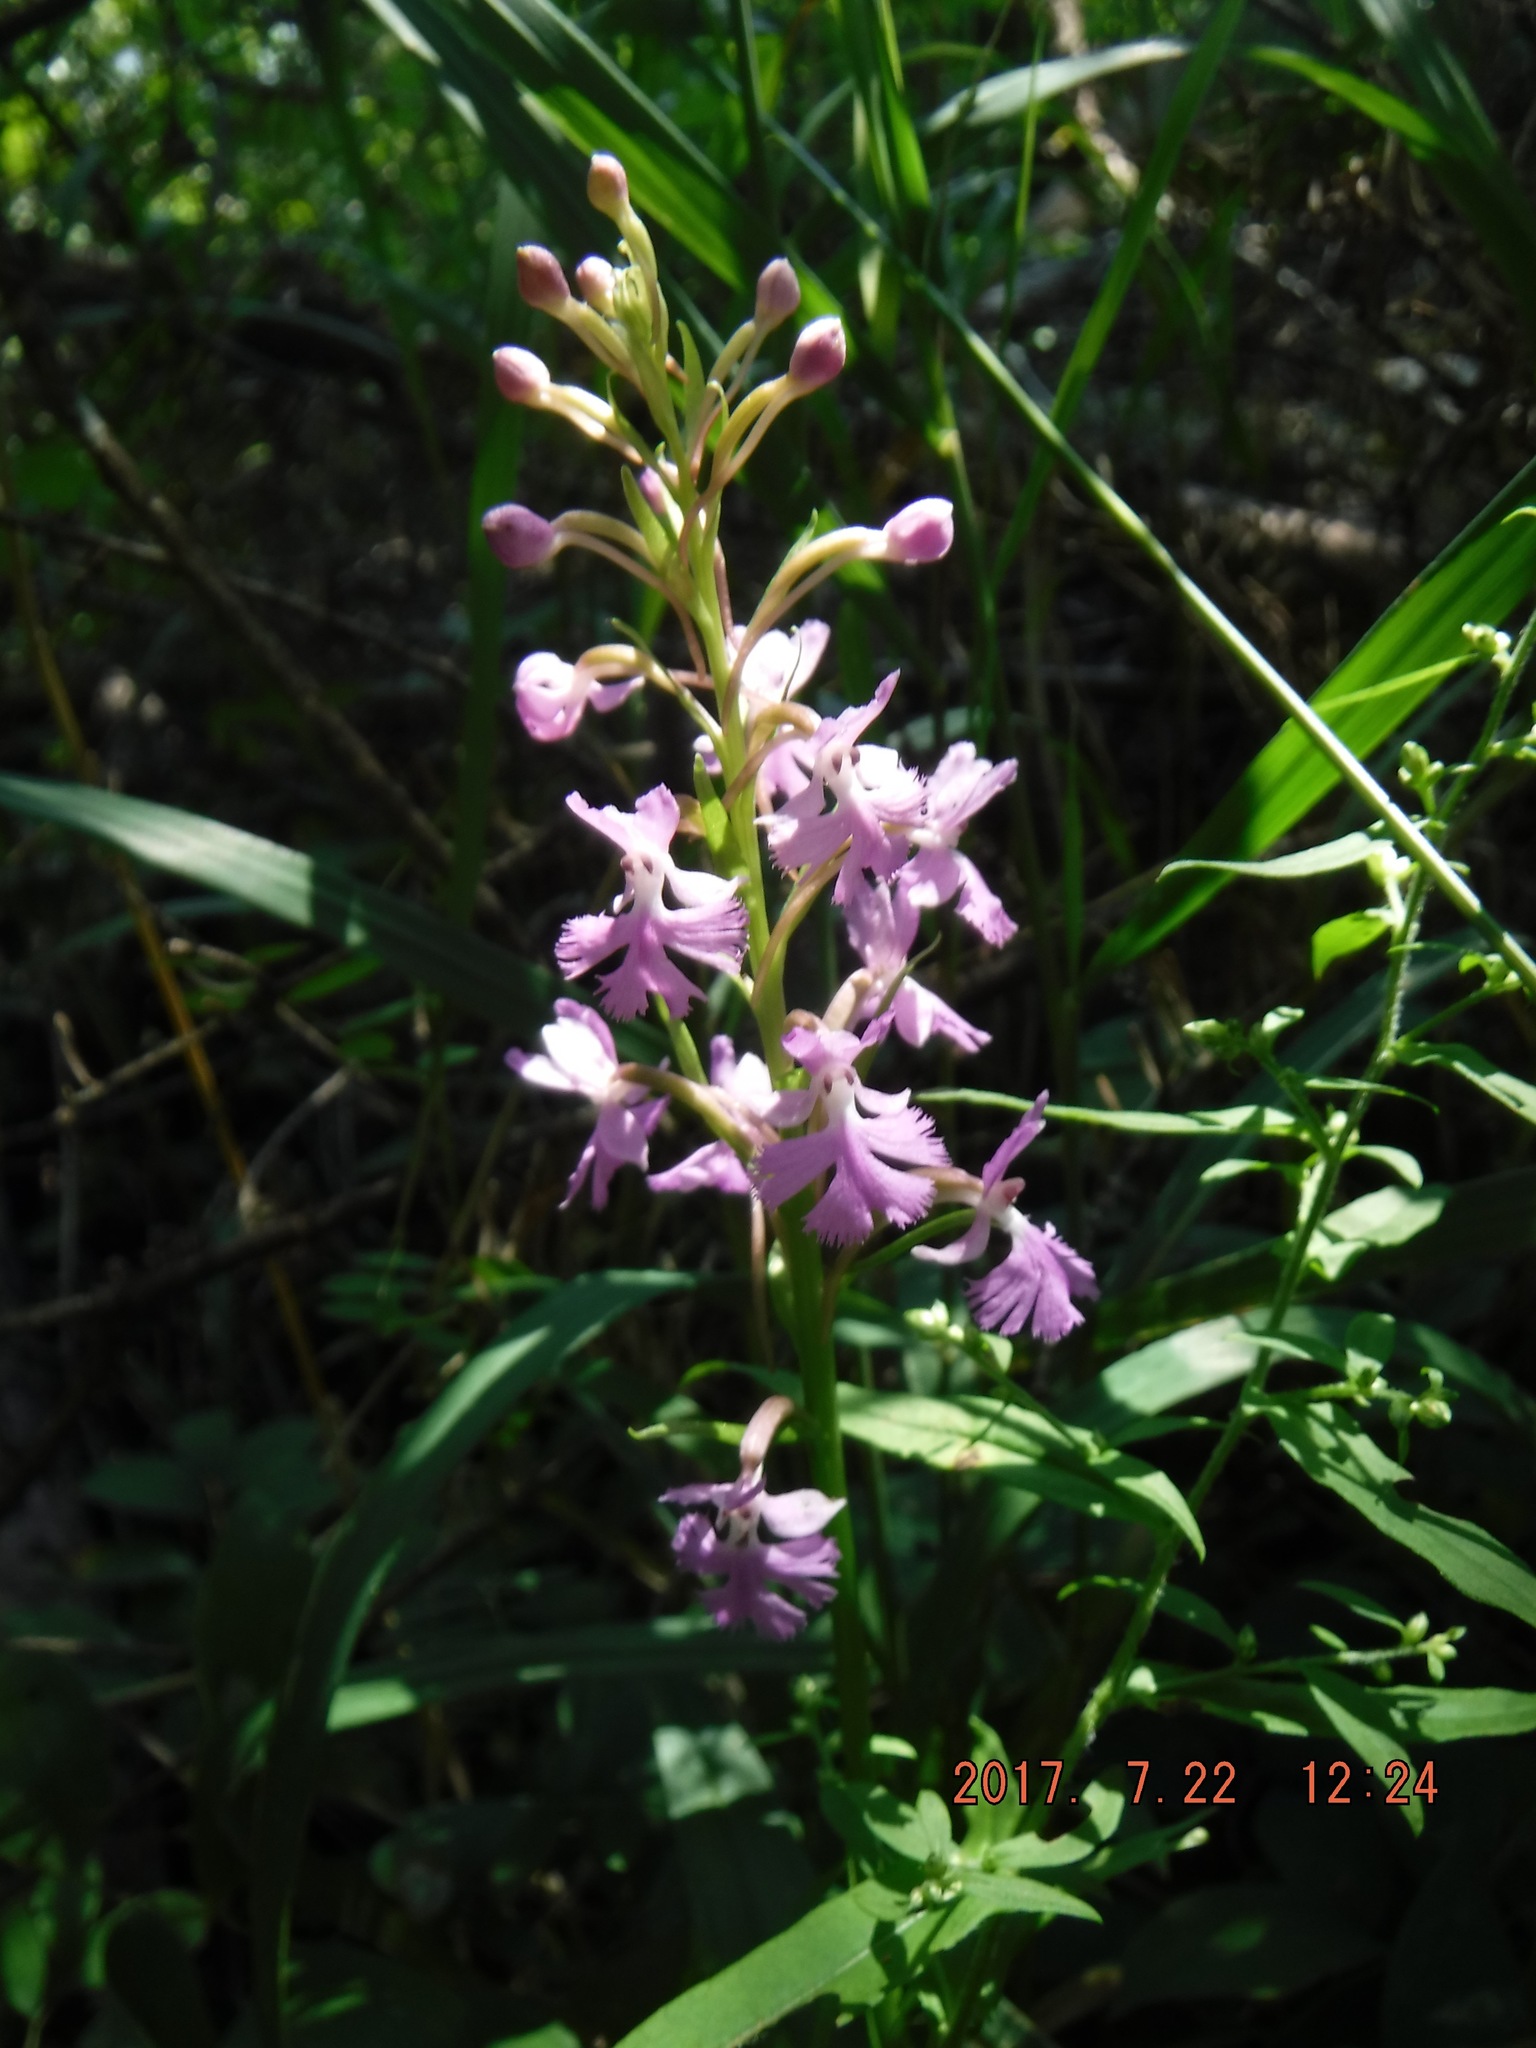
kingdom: Plantae
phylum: Tracheophyta
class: Liliopsida
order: Asparagales
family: Orchidaceae
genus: Platanthera
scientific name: Platanthera psycodes
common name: Lesser purple fringed orchid
